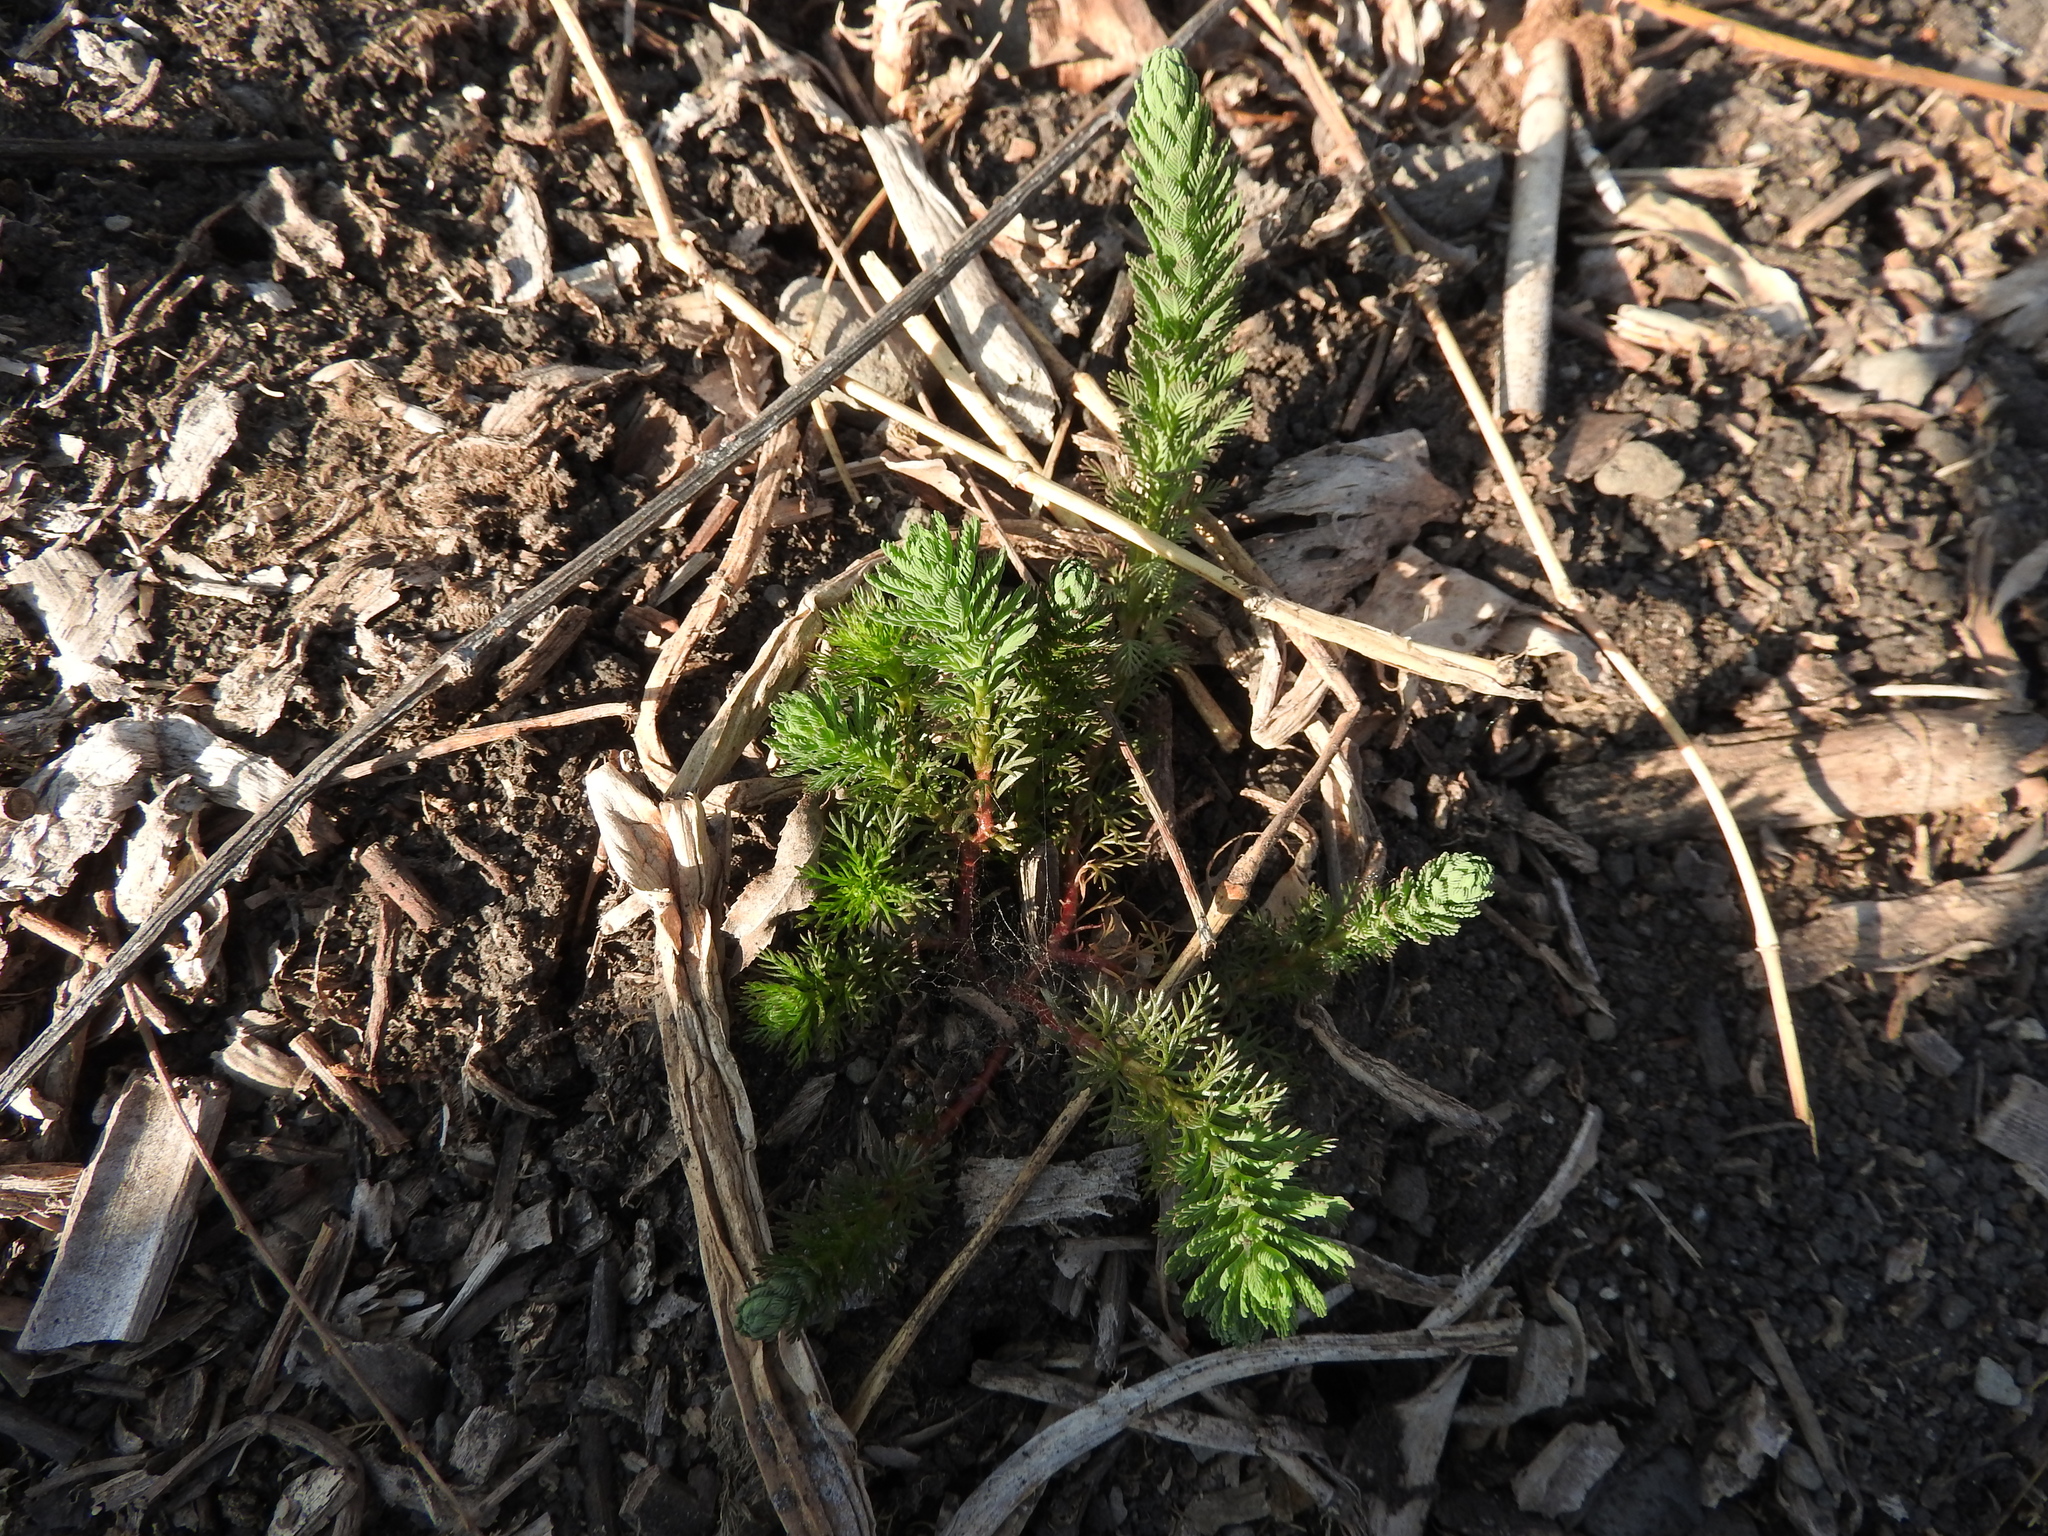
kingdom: Plantae
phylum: Tracheophyta
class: Magnoliopsida
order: Saxifragales
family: Haloragaceae
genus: Myriophyllum
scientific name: Myriophyllum aquaticum
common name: Parrot's feather
